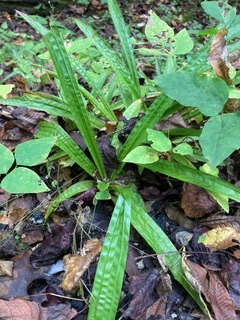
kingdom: Plantae
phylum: Tracheophyta
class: Liliopsida
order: Poales
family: Cyperaceae
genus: Carex
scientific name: Carex plantaginea
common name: Plantain-leaved sedge
